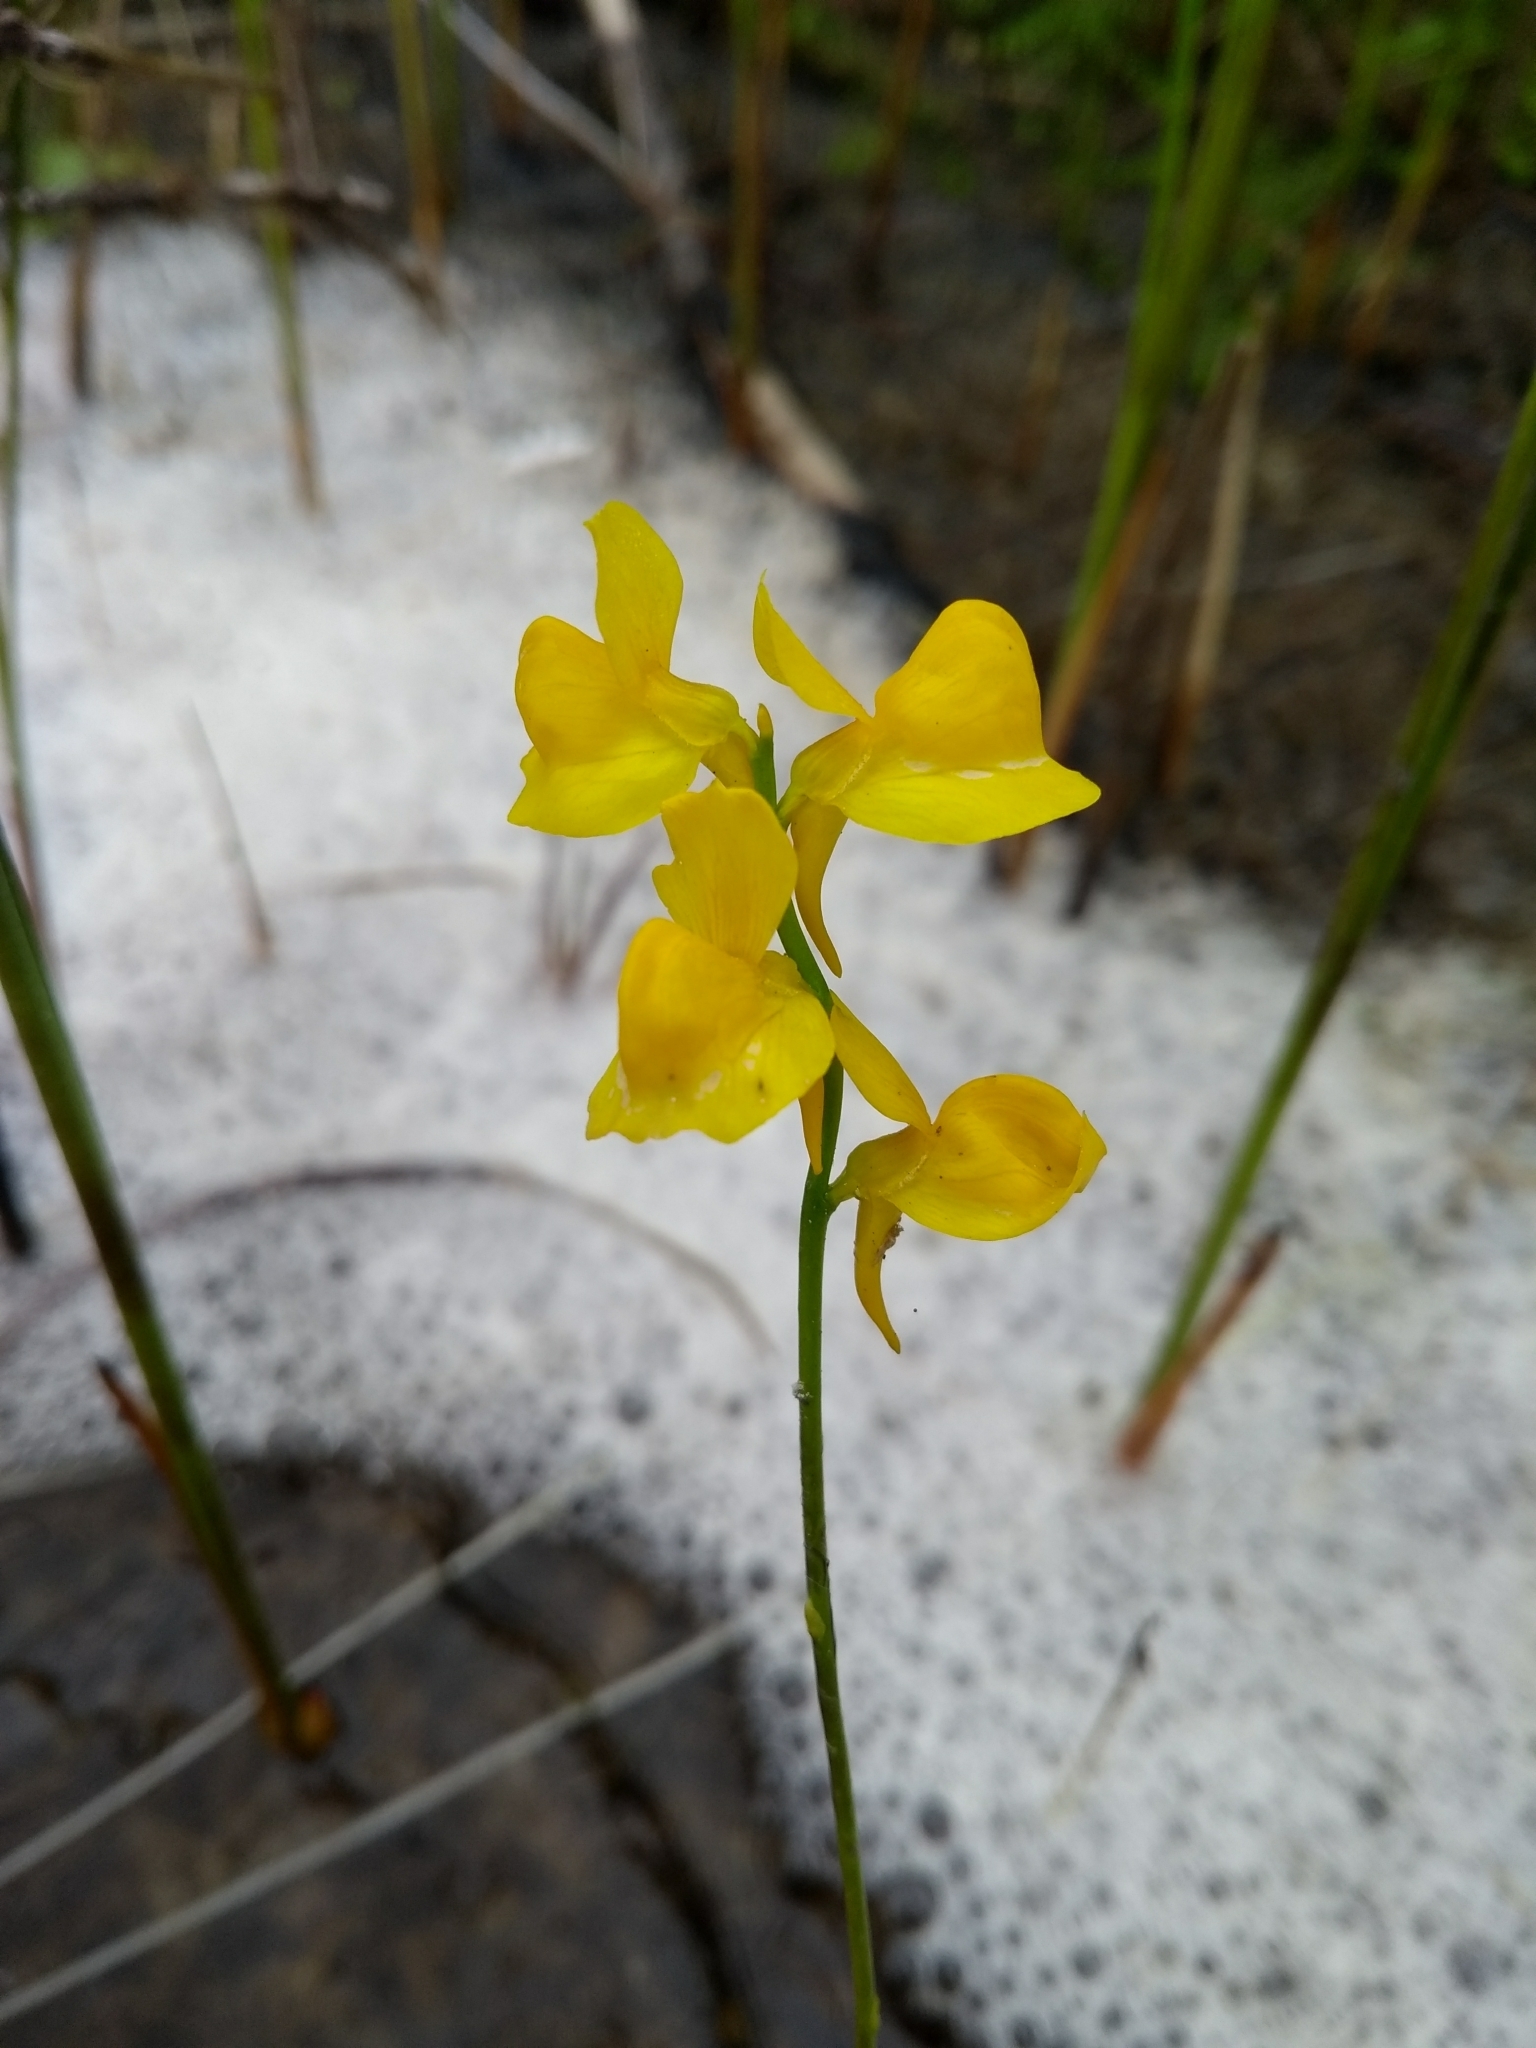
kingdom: Plantae
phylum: Tracheophyta
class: Magnoliopsida
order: Lamiales
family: Lentibulariaceae
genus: Utricularia
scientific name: Utricularia cornuta
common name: Horned bladderwort
